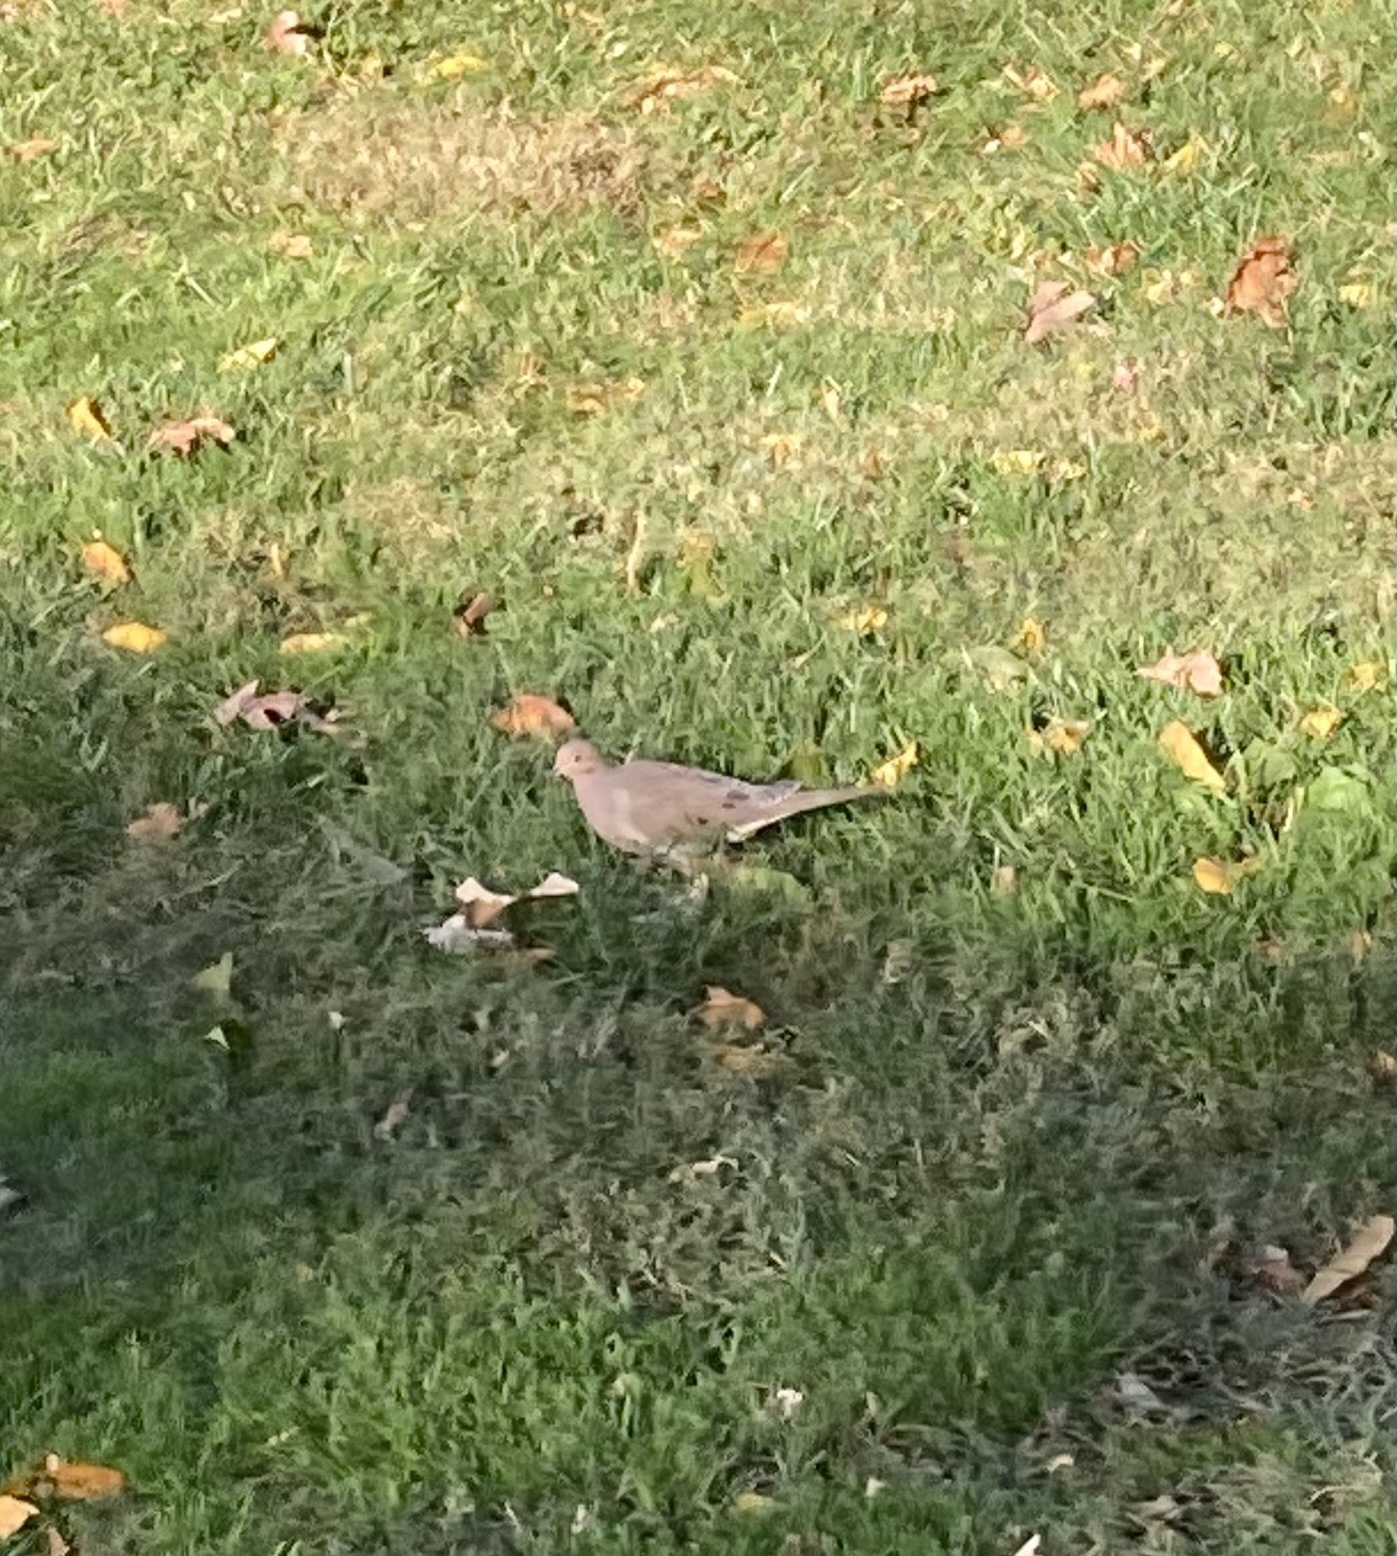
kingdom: Animalia
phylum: Chordata
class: Aves
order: Columbiformes
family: Columbidae
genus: Zenaida
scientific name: Zenaida macroura
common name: Mourning dove
